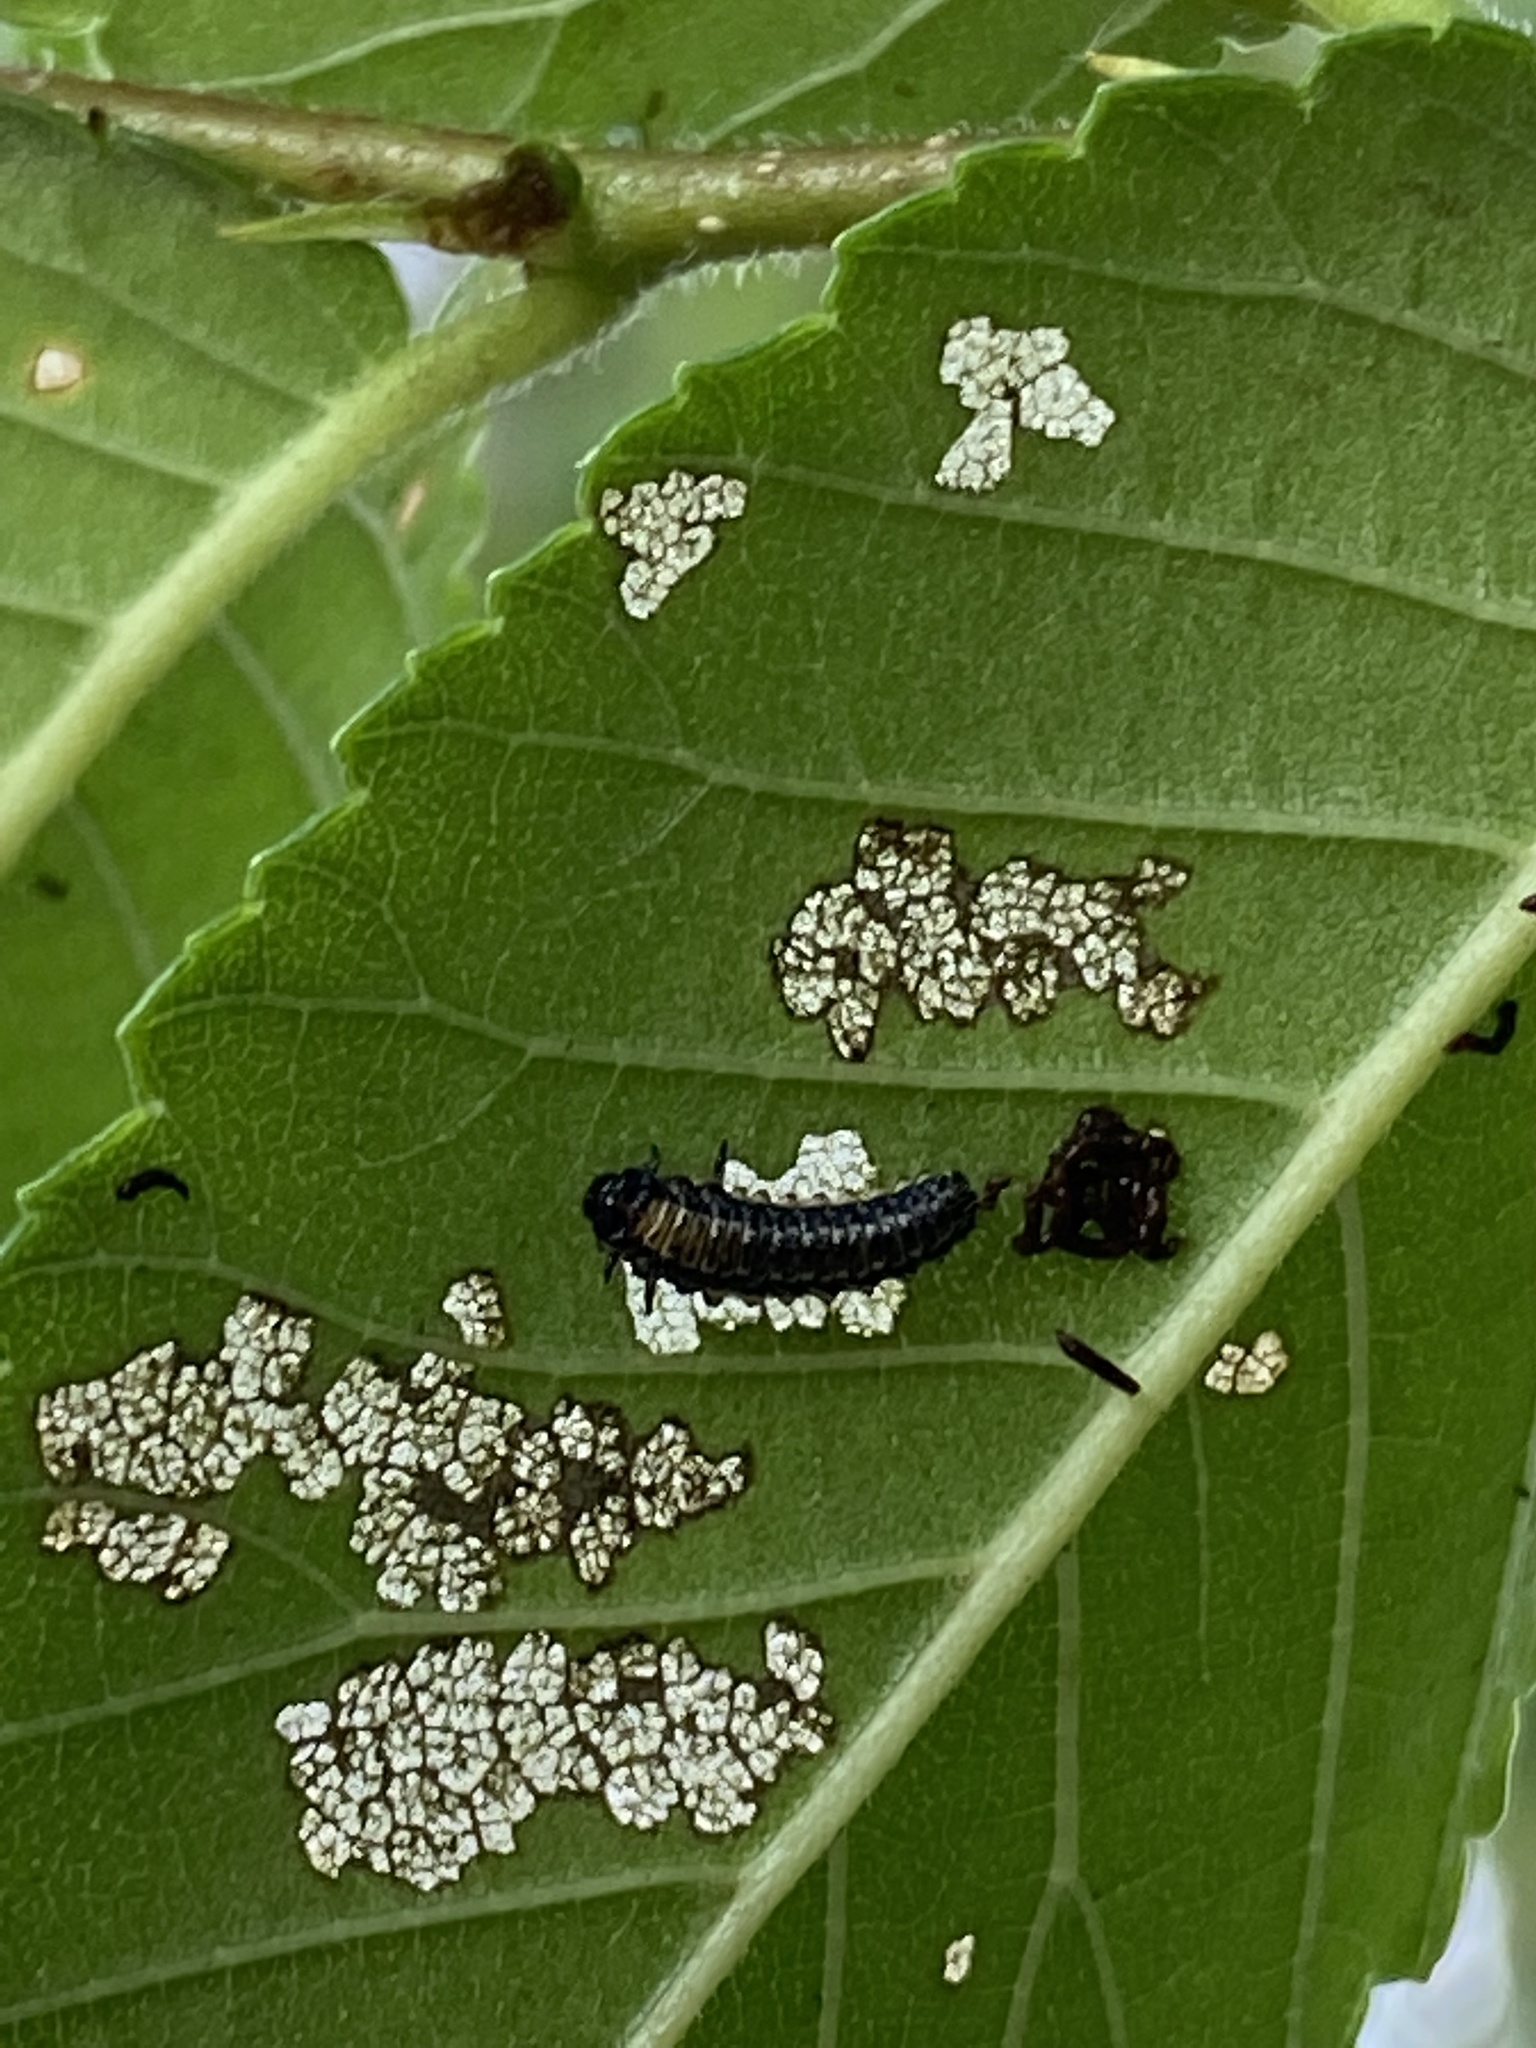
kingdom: Animalia
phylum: Arthropoda
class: Insecta
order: Coleoptera
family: Chrysomelidae
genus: Xanthogaleruca
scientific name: Xanthogaleruca luteola
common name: Elm leaf beetle
